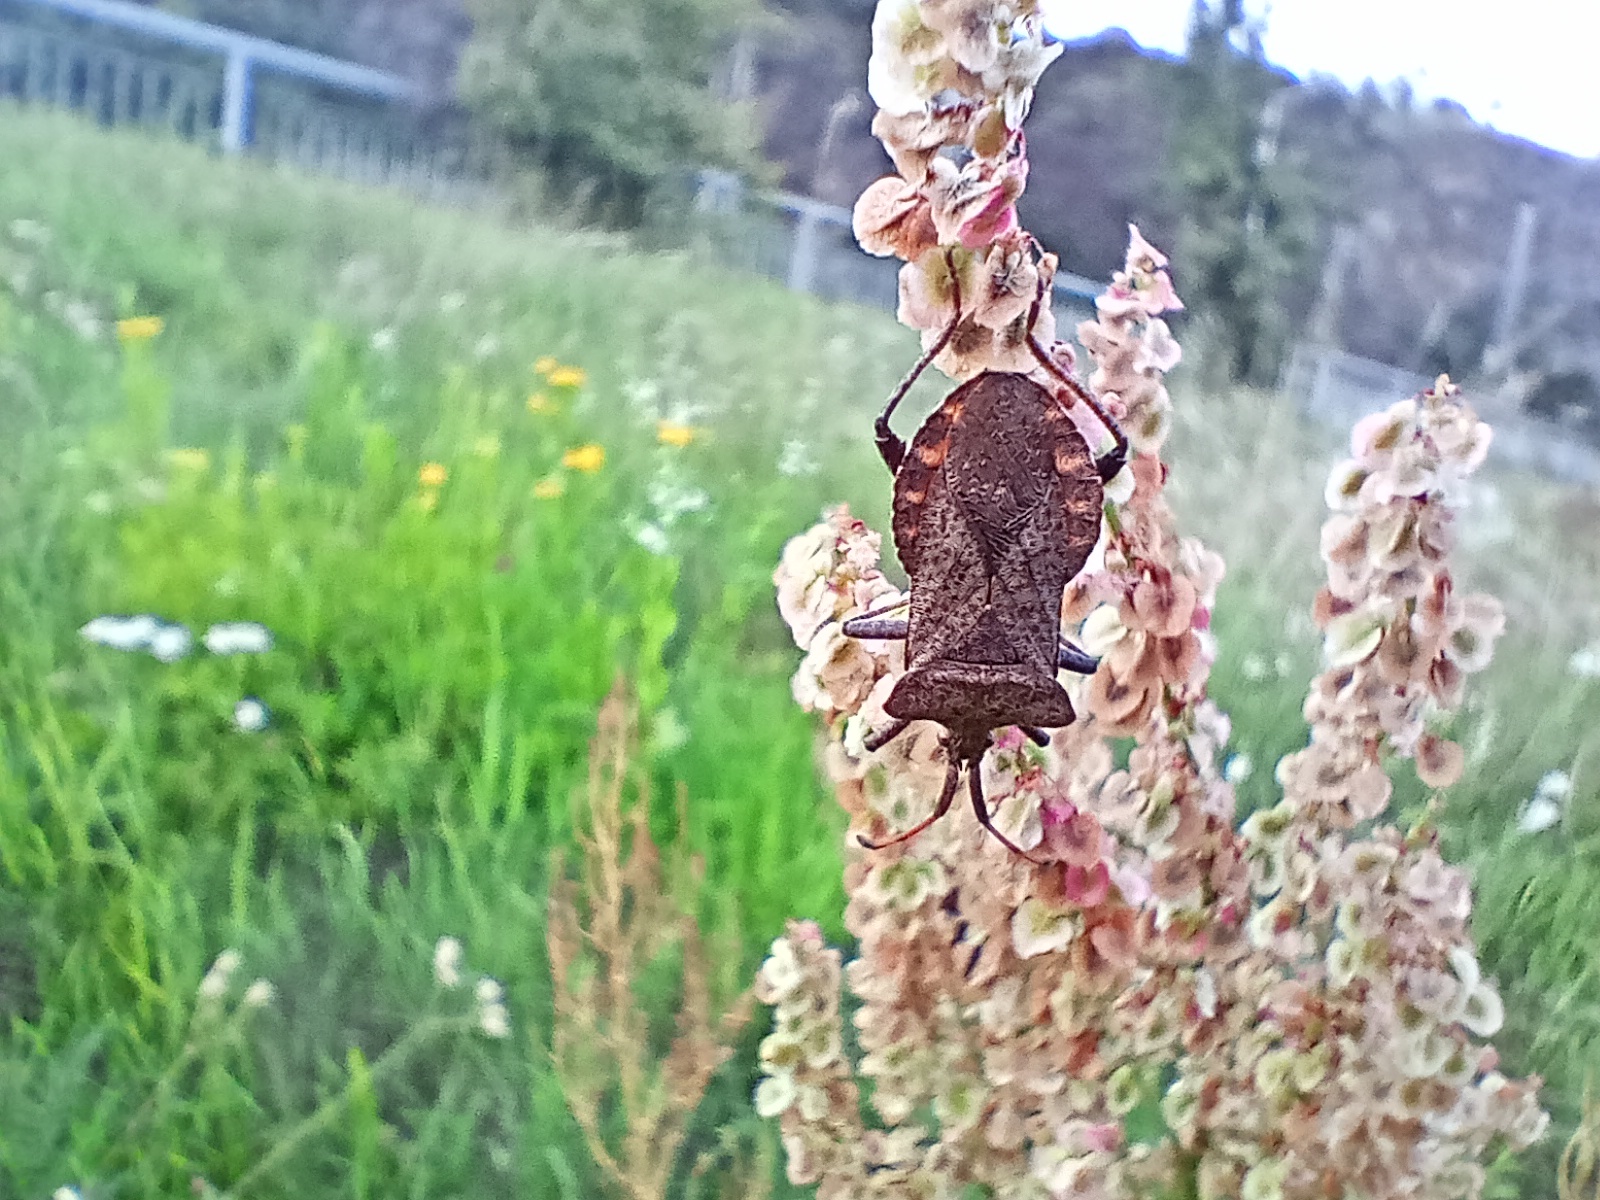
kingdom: Animalia
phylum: Arthropoda
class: Insecta
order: Hemiptera
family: Coreidae
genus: Coreus
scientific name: Coreus marginatus
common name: Dock bug
